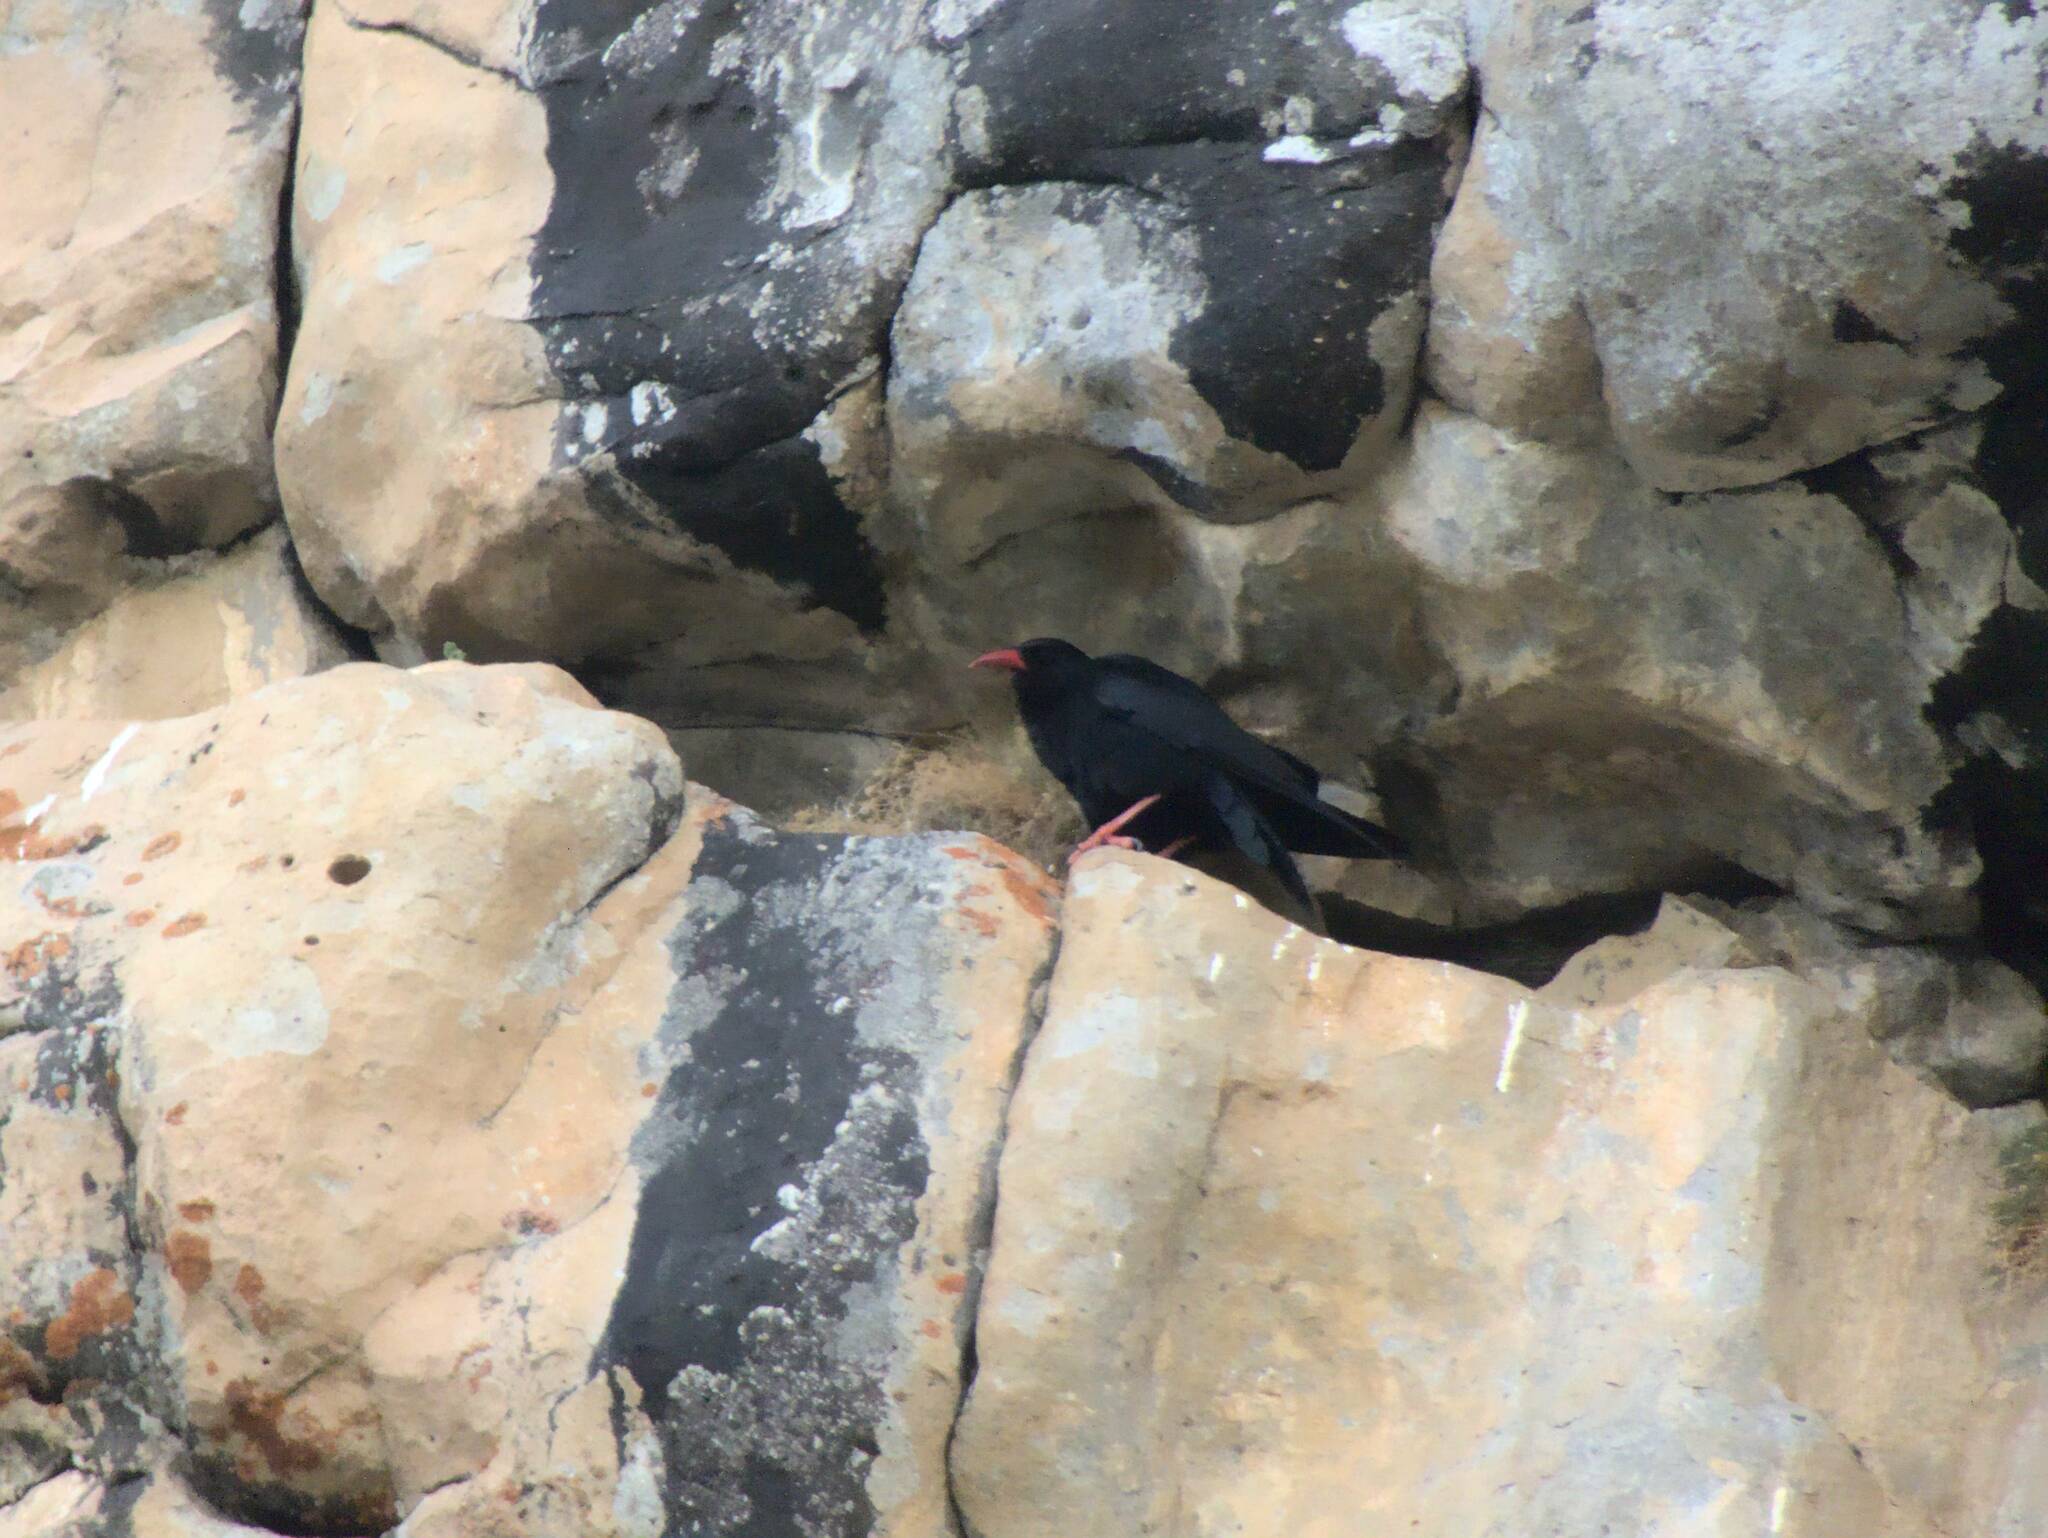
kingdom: Animalia
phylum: Chordata
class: Aves
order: Passeriformes
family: Corvidae
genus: Pyrrhocorax
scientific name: Pyrrhocorax pyrrhocorax
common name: Red-billed chough
